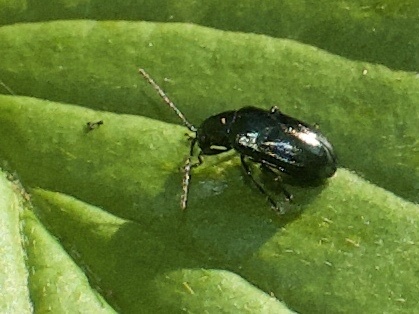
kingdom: Animalia
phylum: Arthropoda
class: Insecta
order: Coleoptera
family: Chrysomelidae
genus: Altica
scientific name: Altica
